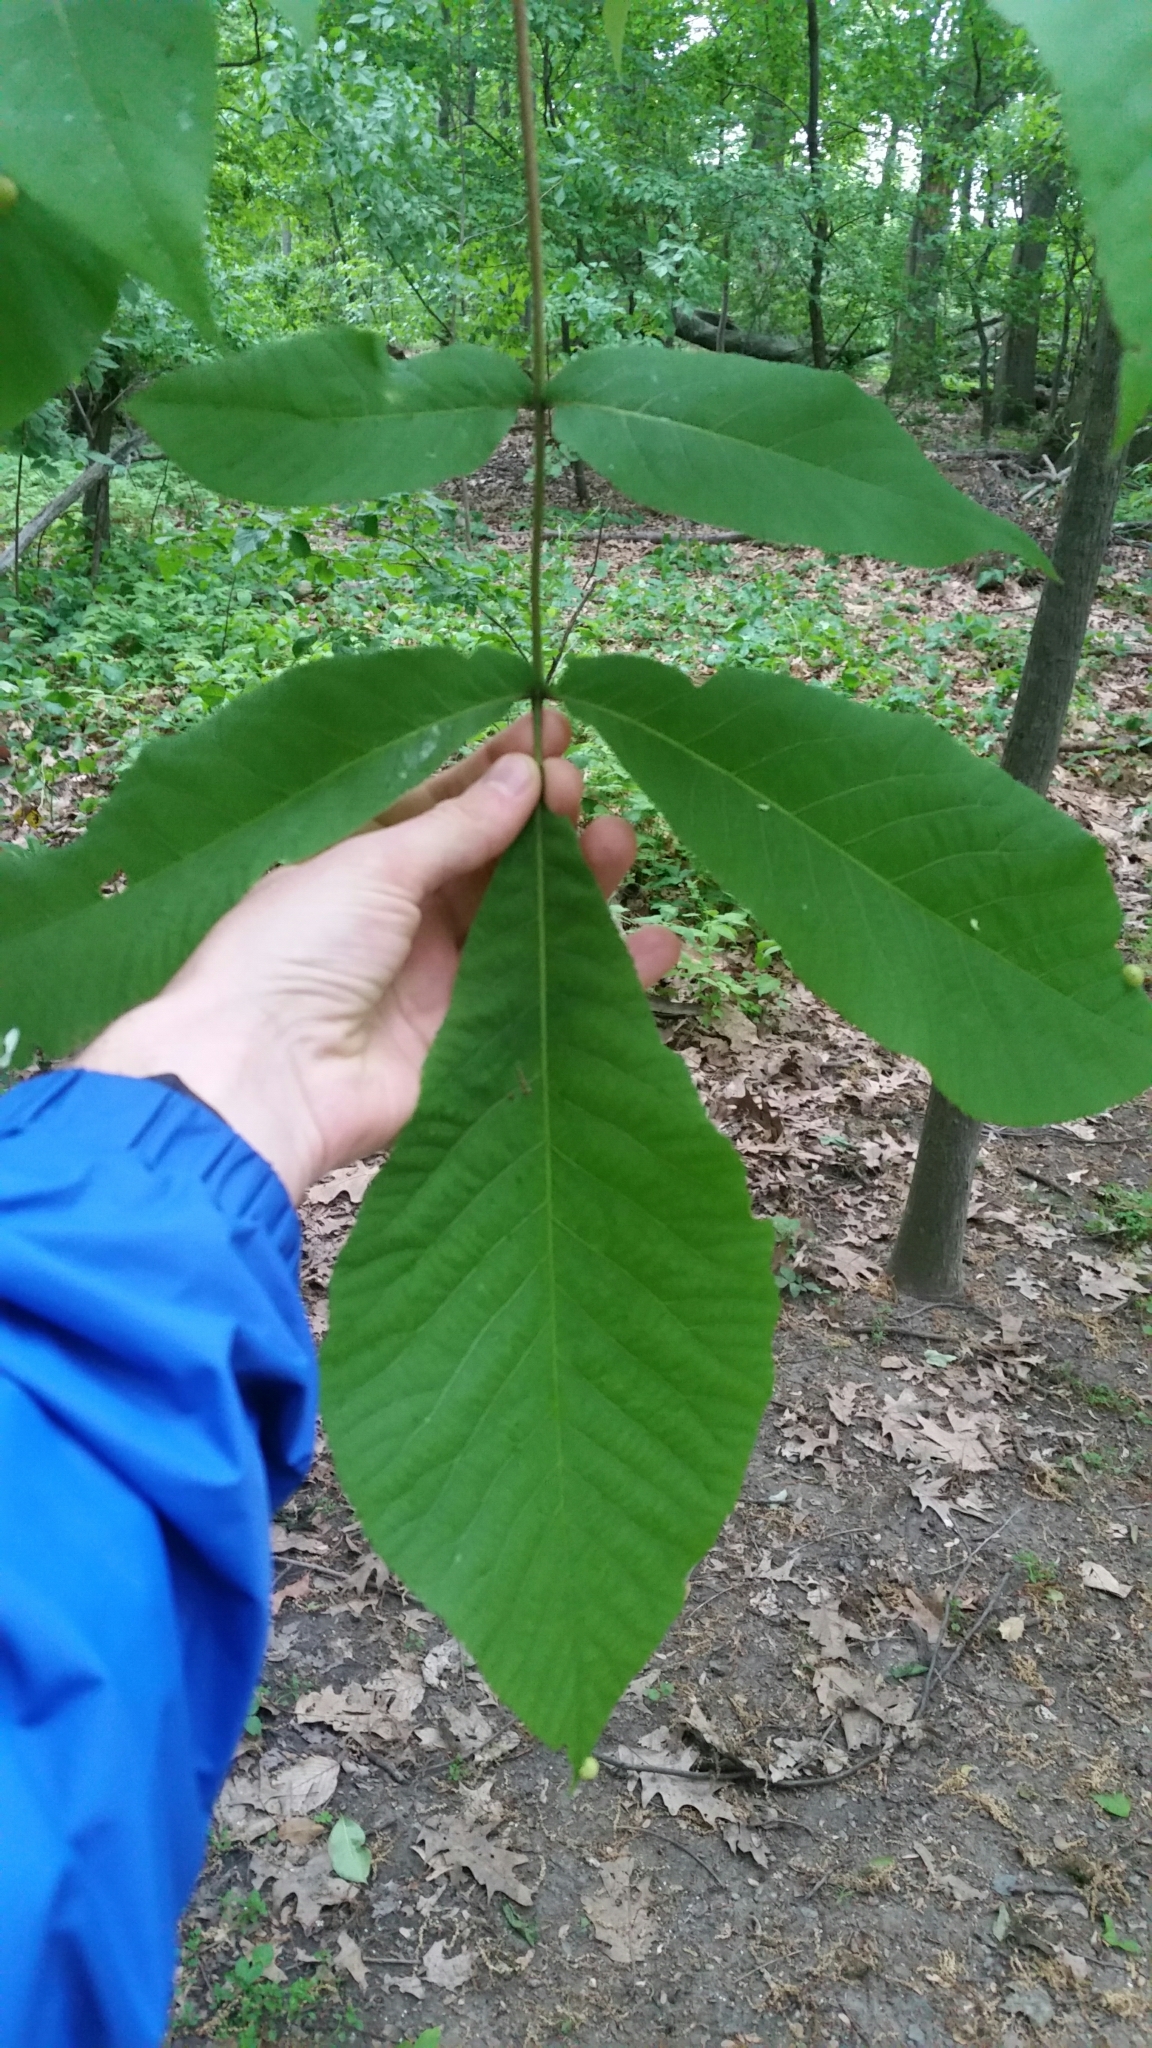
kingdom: Plantae
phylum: Tracheophyta
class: Magnoliopsida
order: Fagales
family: Juglandaceae
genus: Carya
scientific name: Carya
